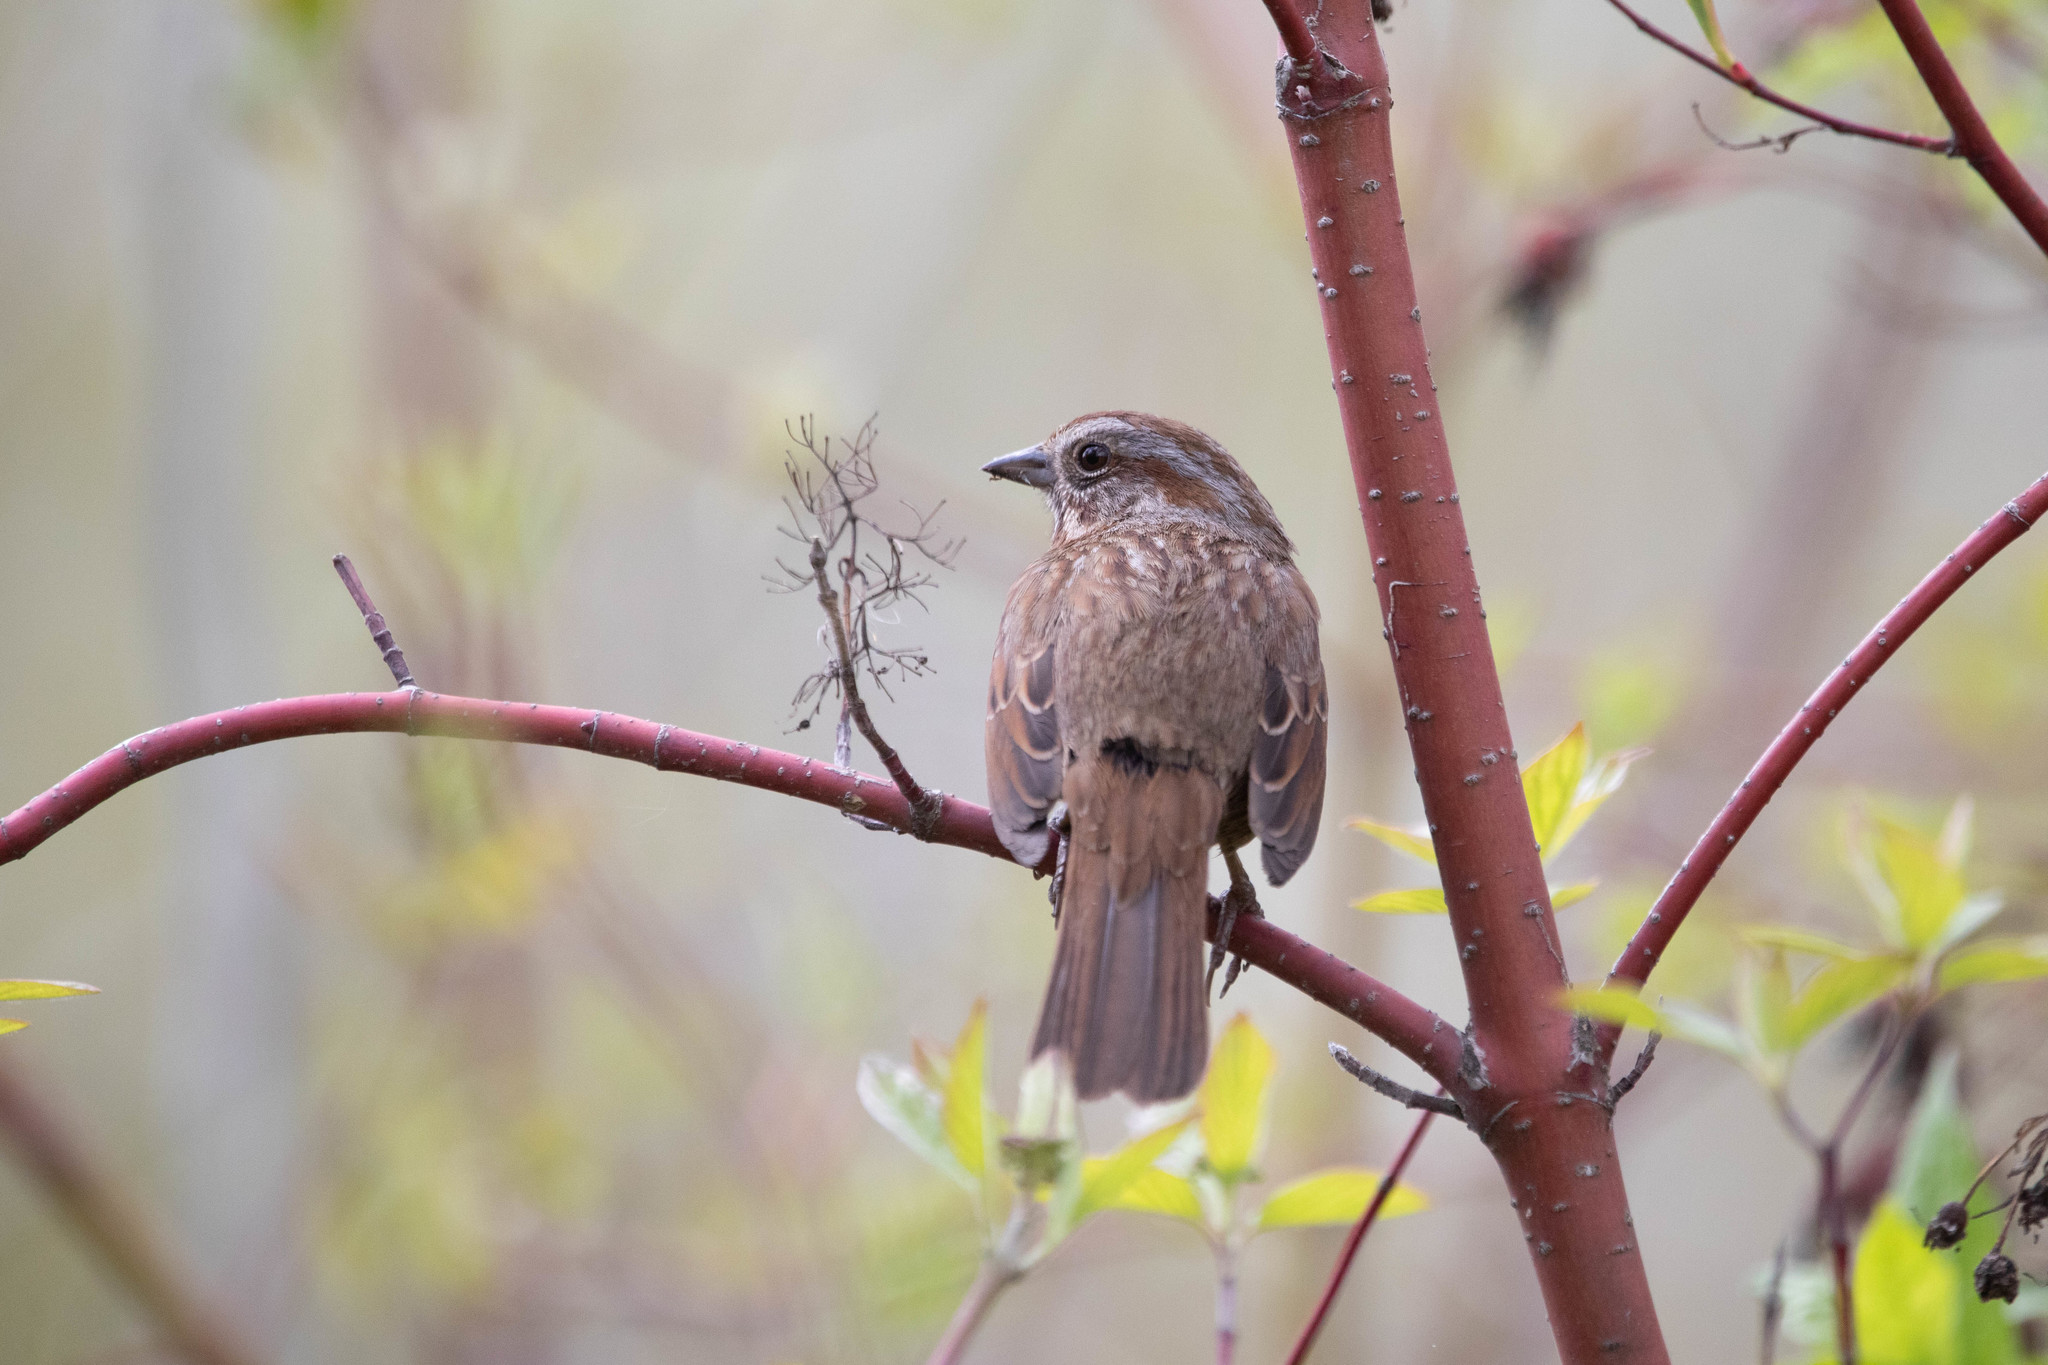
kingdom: Animalia
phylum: Chordata
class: Aves
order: Passeriformes
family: Passerellidae
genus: Melospiza
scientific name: Melospiza melodia
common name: Song sparrow
